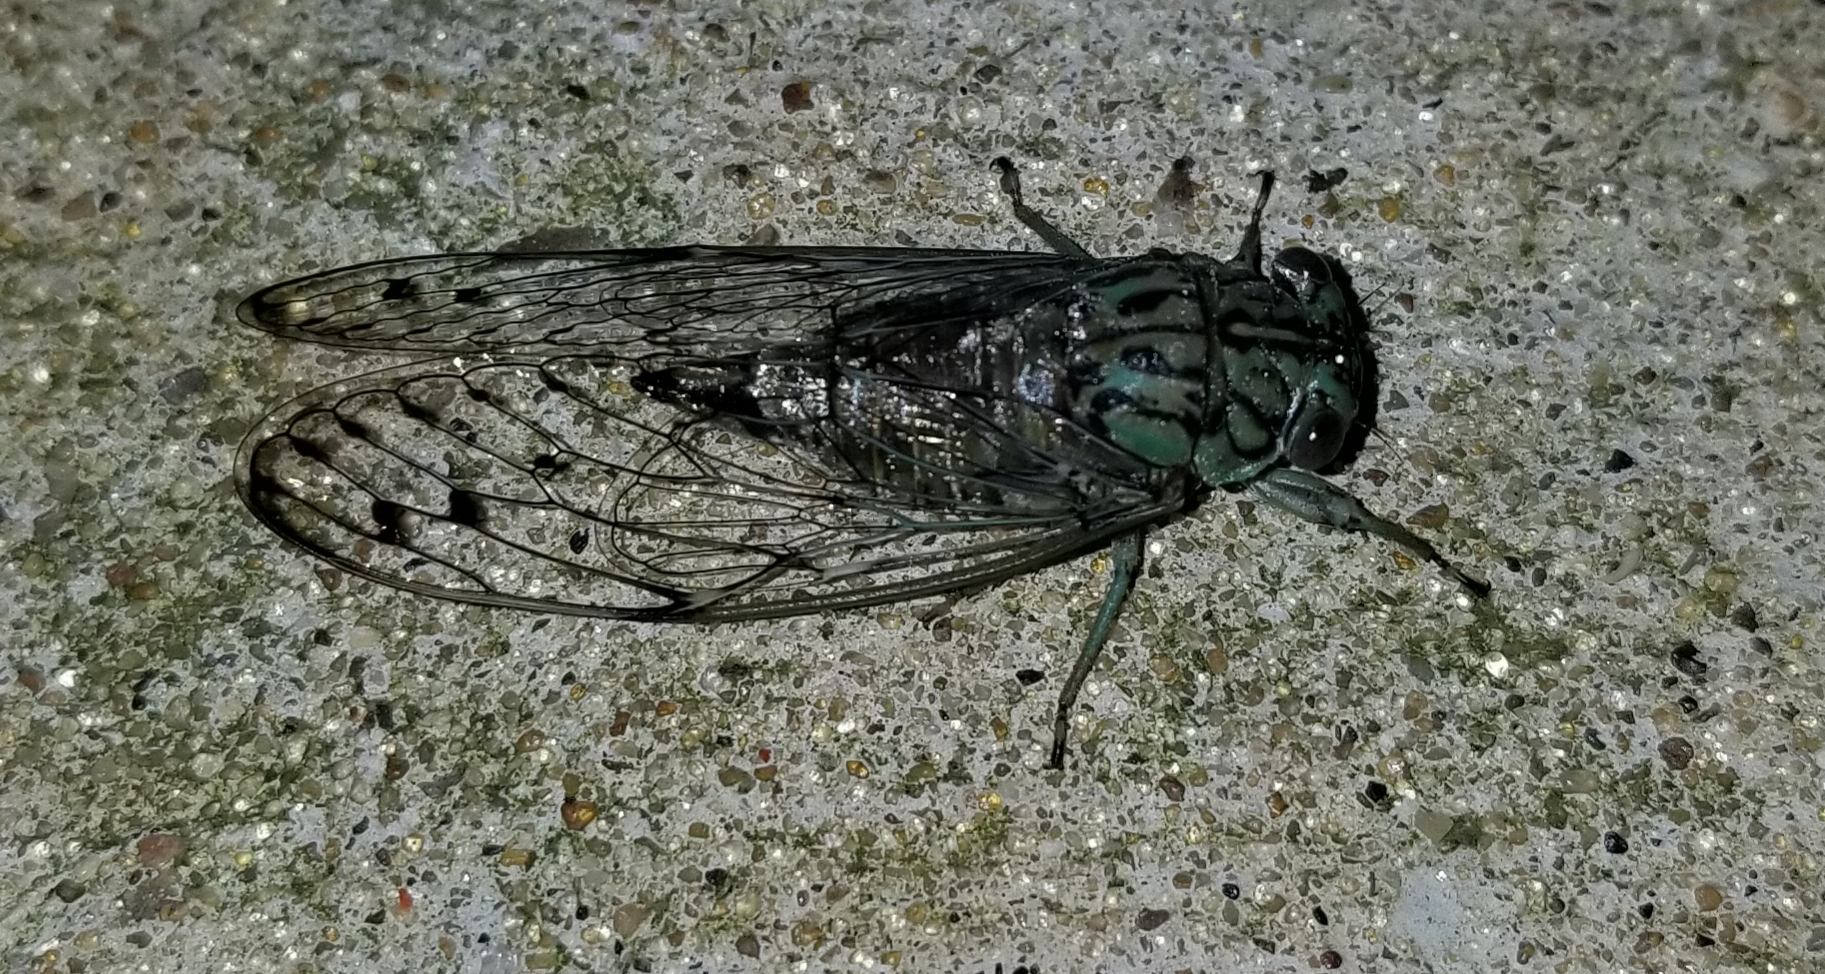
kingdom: Animalia
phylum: Arthropoda
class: Insecta
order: Hemiptera
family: Cicadidae
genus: Neocicada
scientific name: Neocicada hieroglyphica
